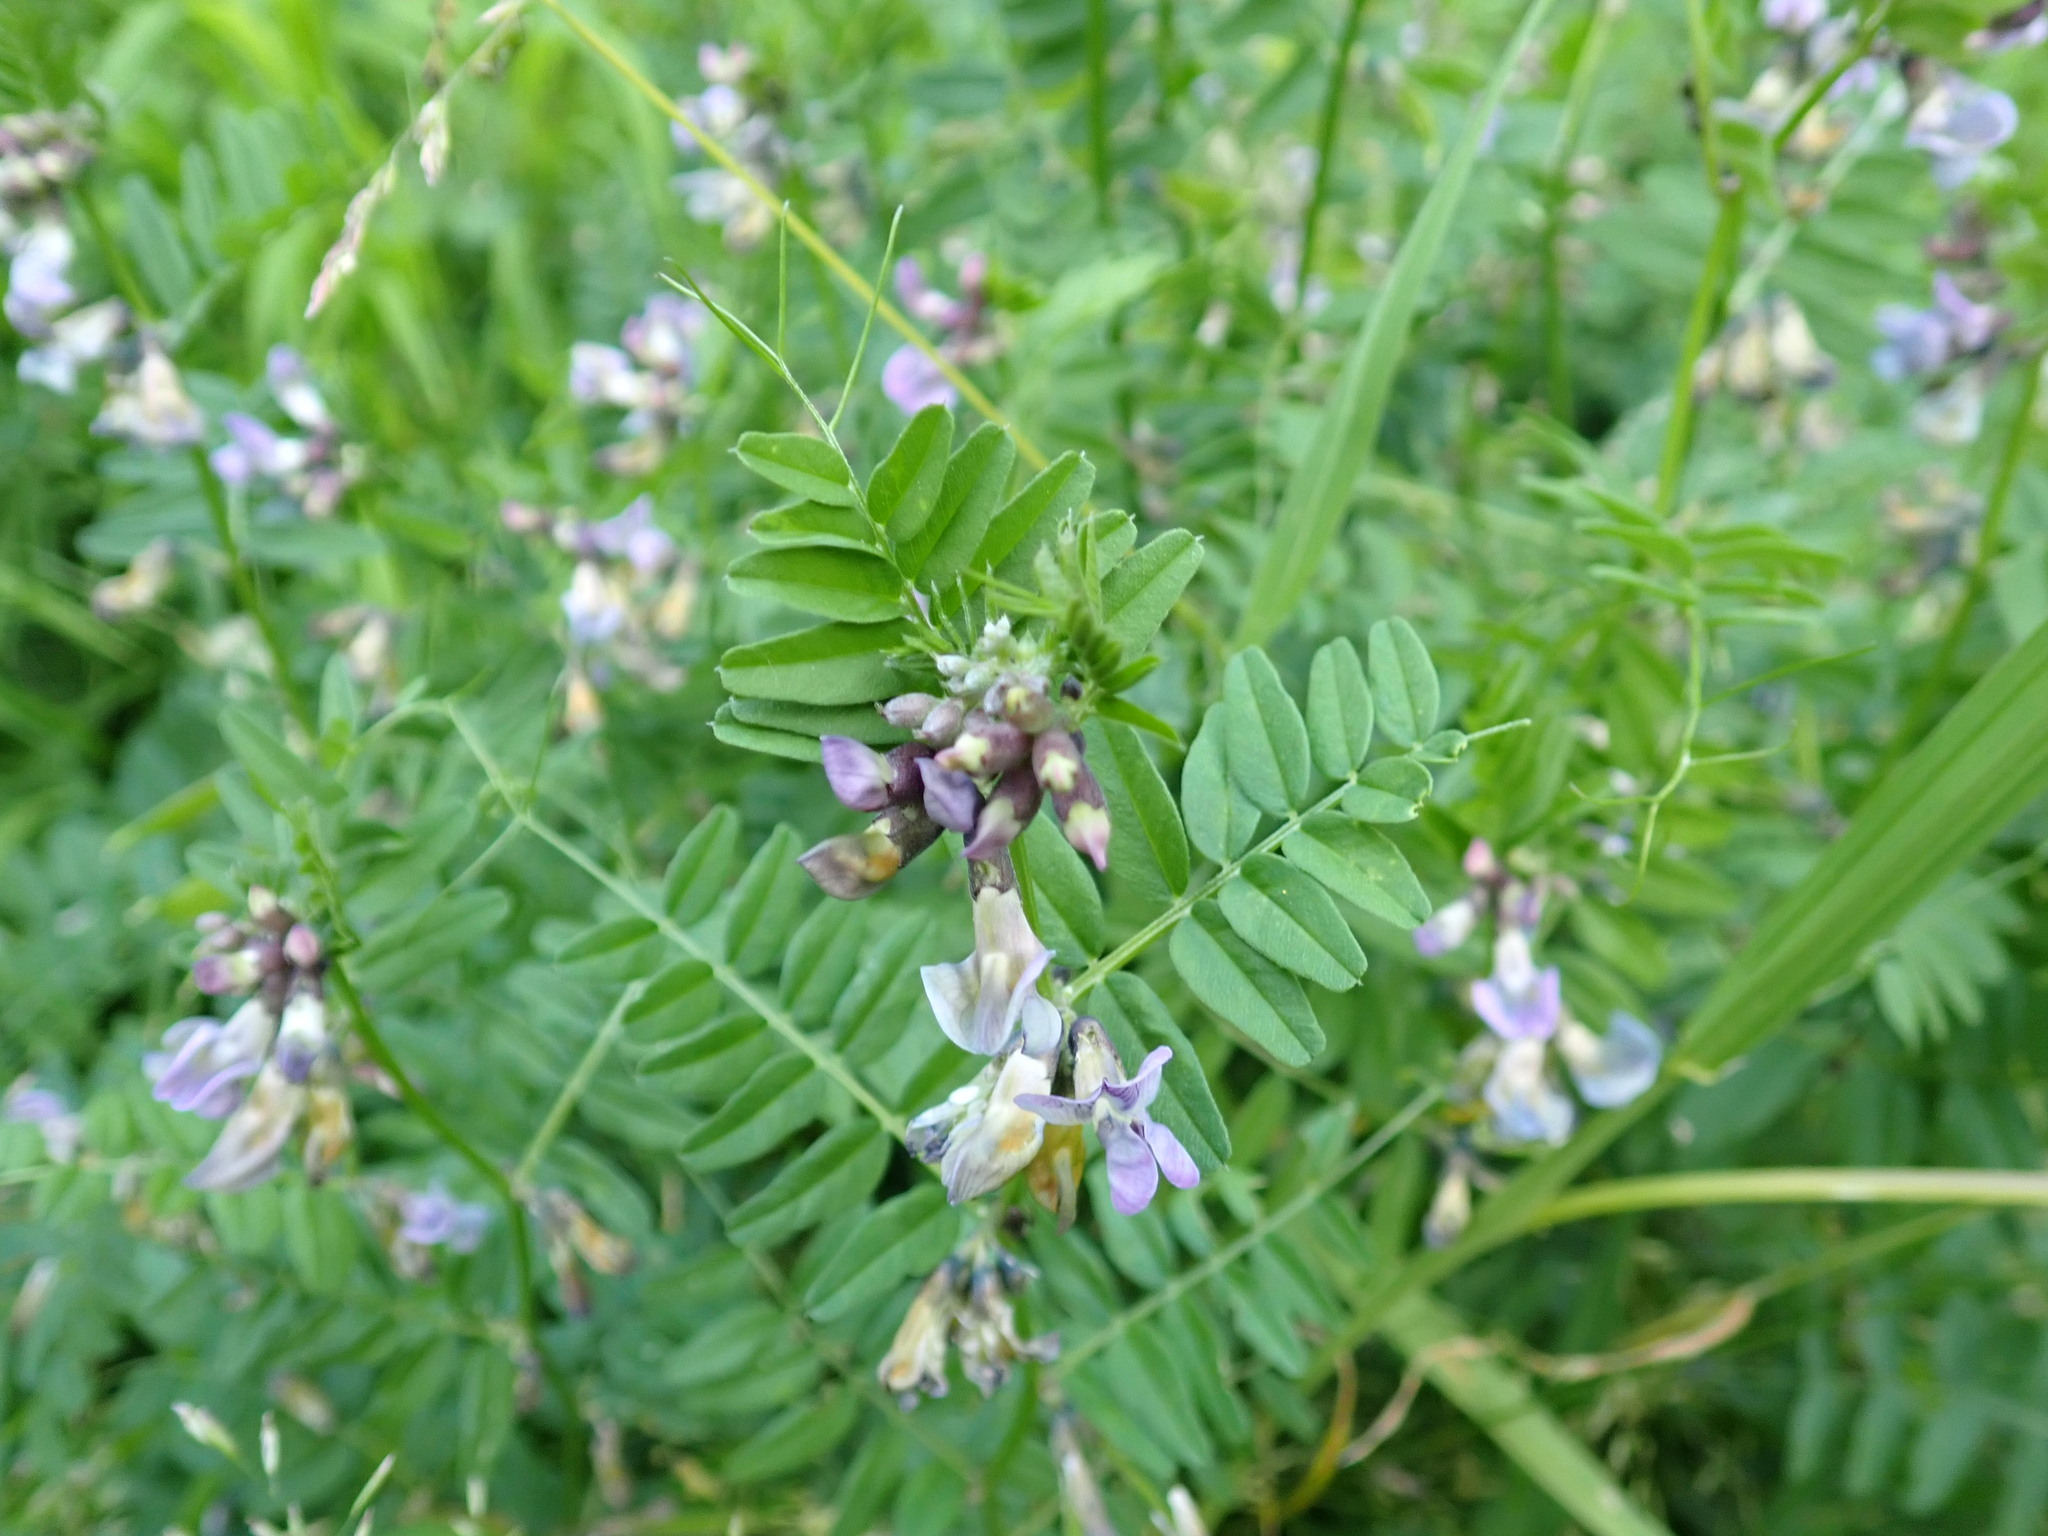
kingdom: Plantae
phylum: Tracheophyta
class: Magnoliopsida
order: Fabales
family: Fabaceae
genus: Vicia
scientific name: Vicia sepium
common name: Bush vetch
